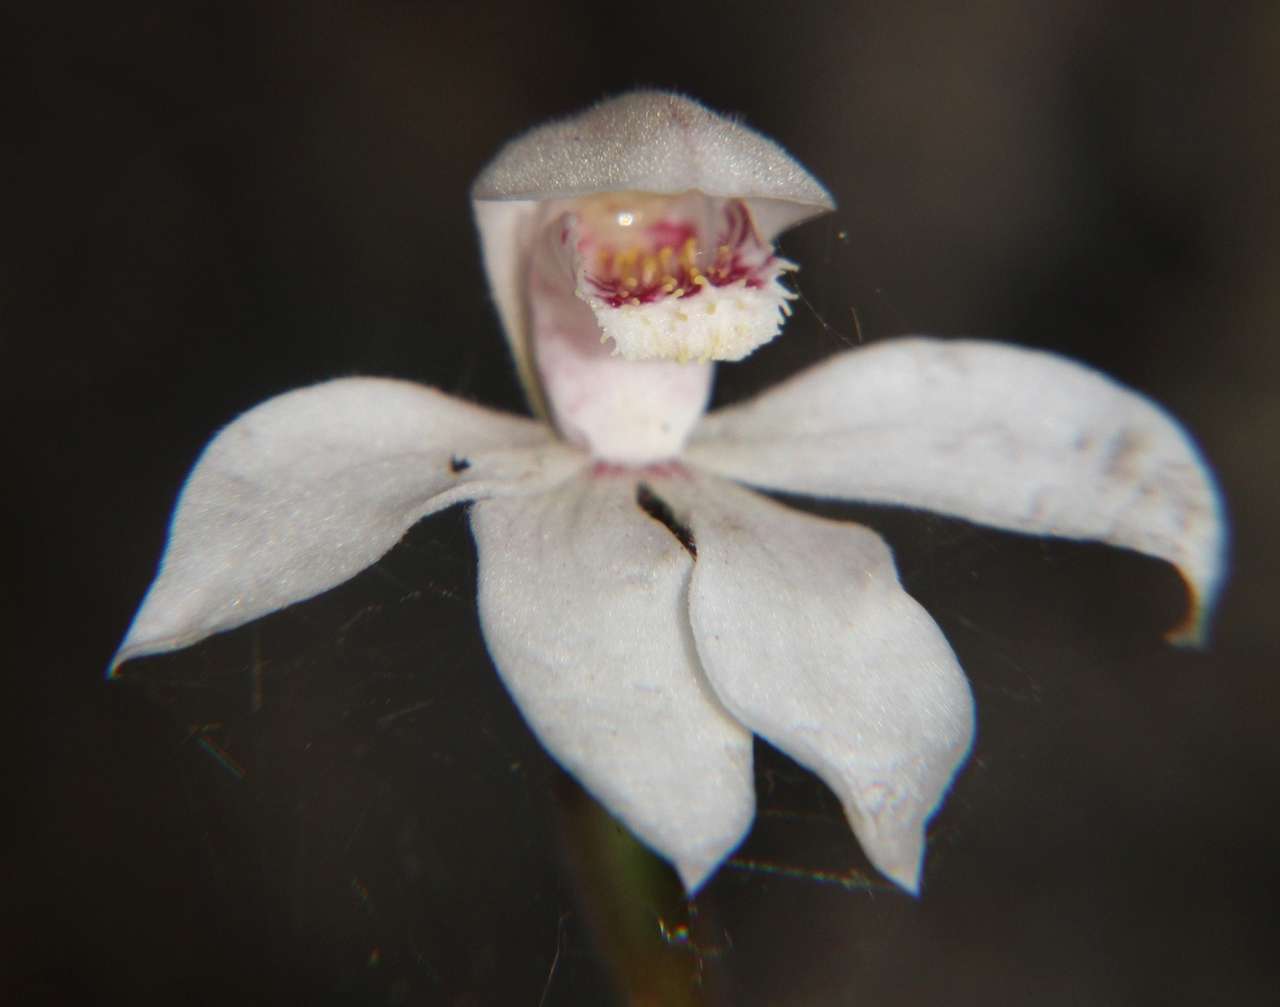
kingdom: Plantae
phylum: Tracheophyta
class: Liliopsida
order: Asparagales
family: Orchidaceae
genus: Caladenia
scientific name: Caladenia alpina
